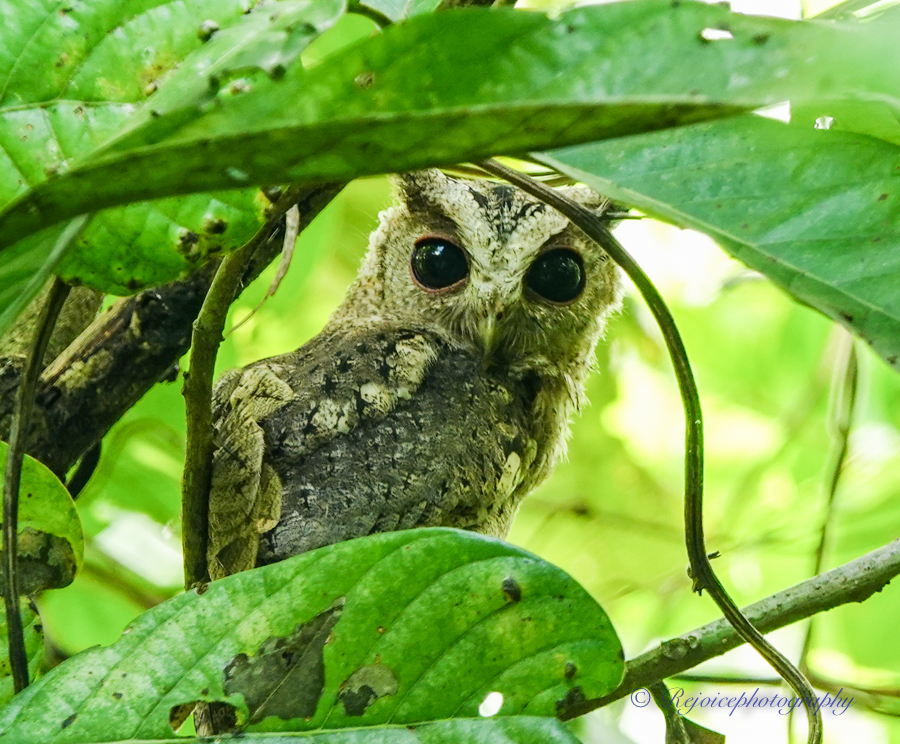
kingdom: Animalia
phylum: Chordata
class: Aves
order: Strigiformes
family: Strigidae
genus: Otus
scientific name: Otus lettia
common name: Collared scops owl
